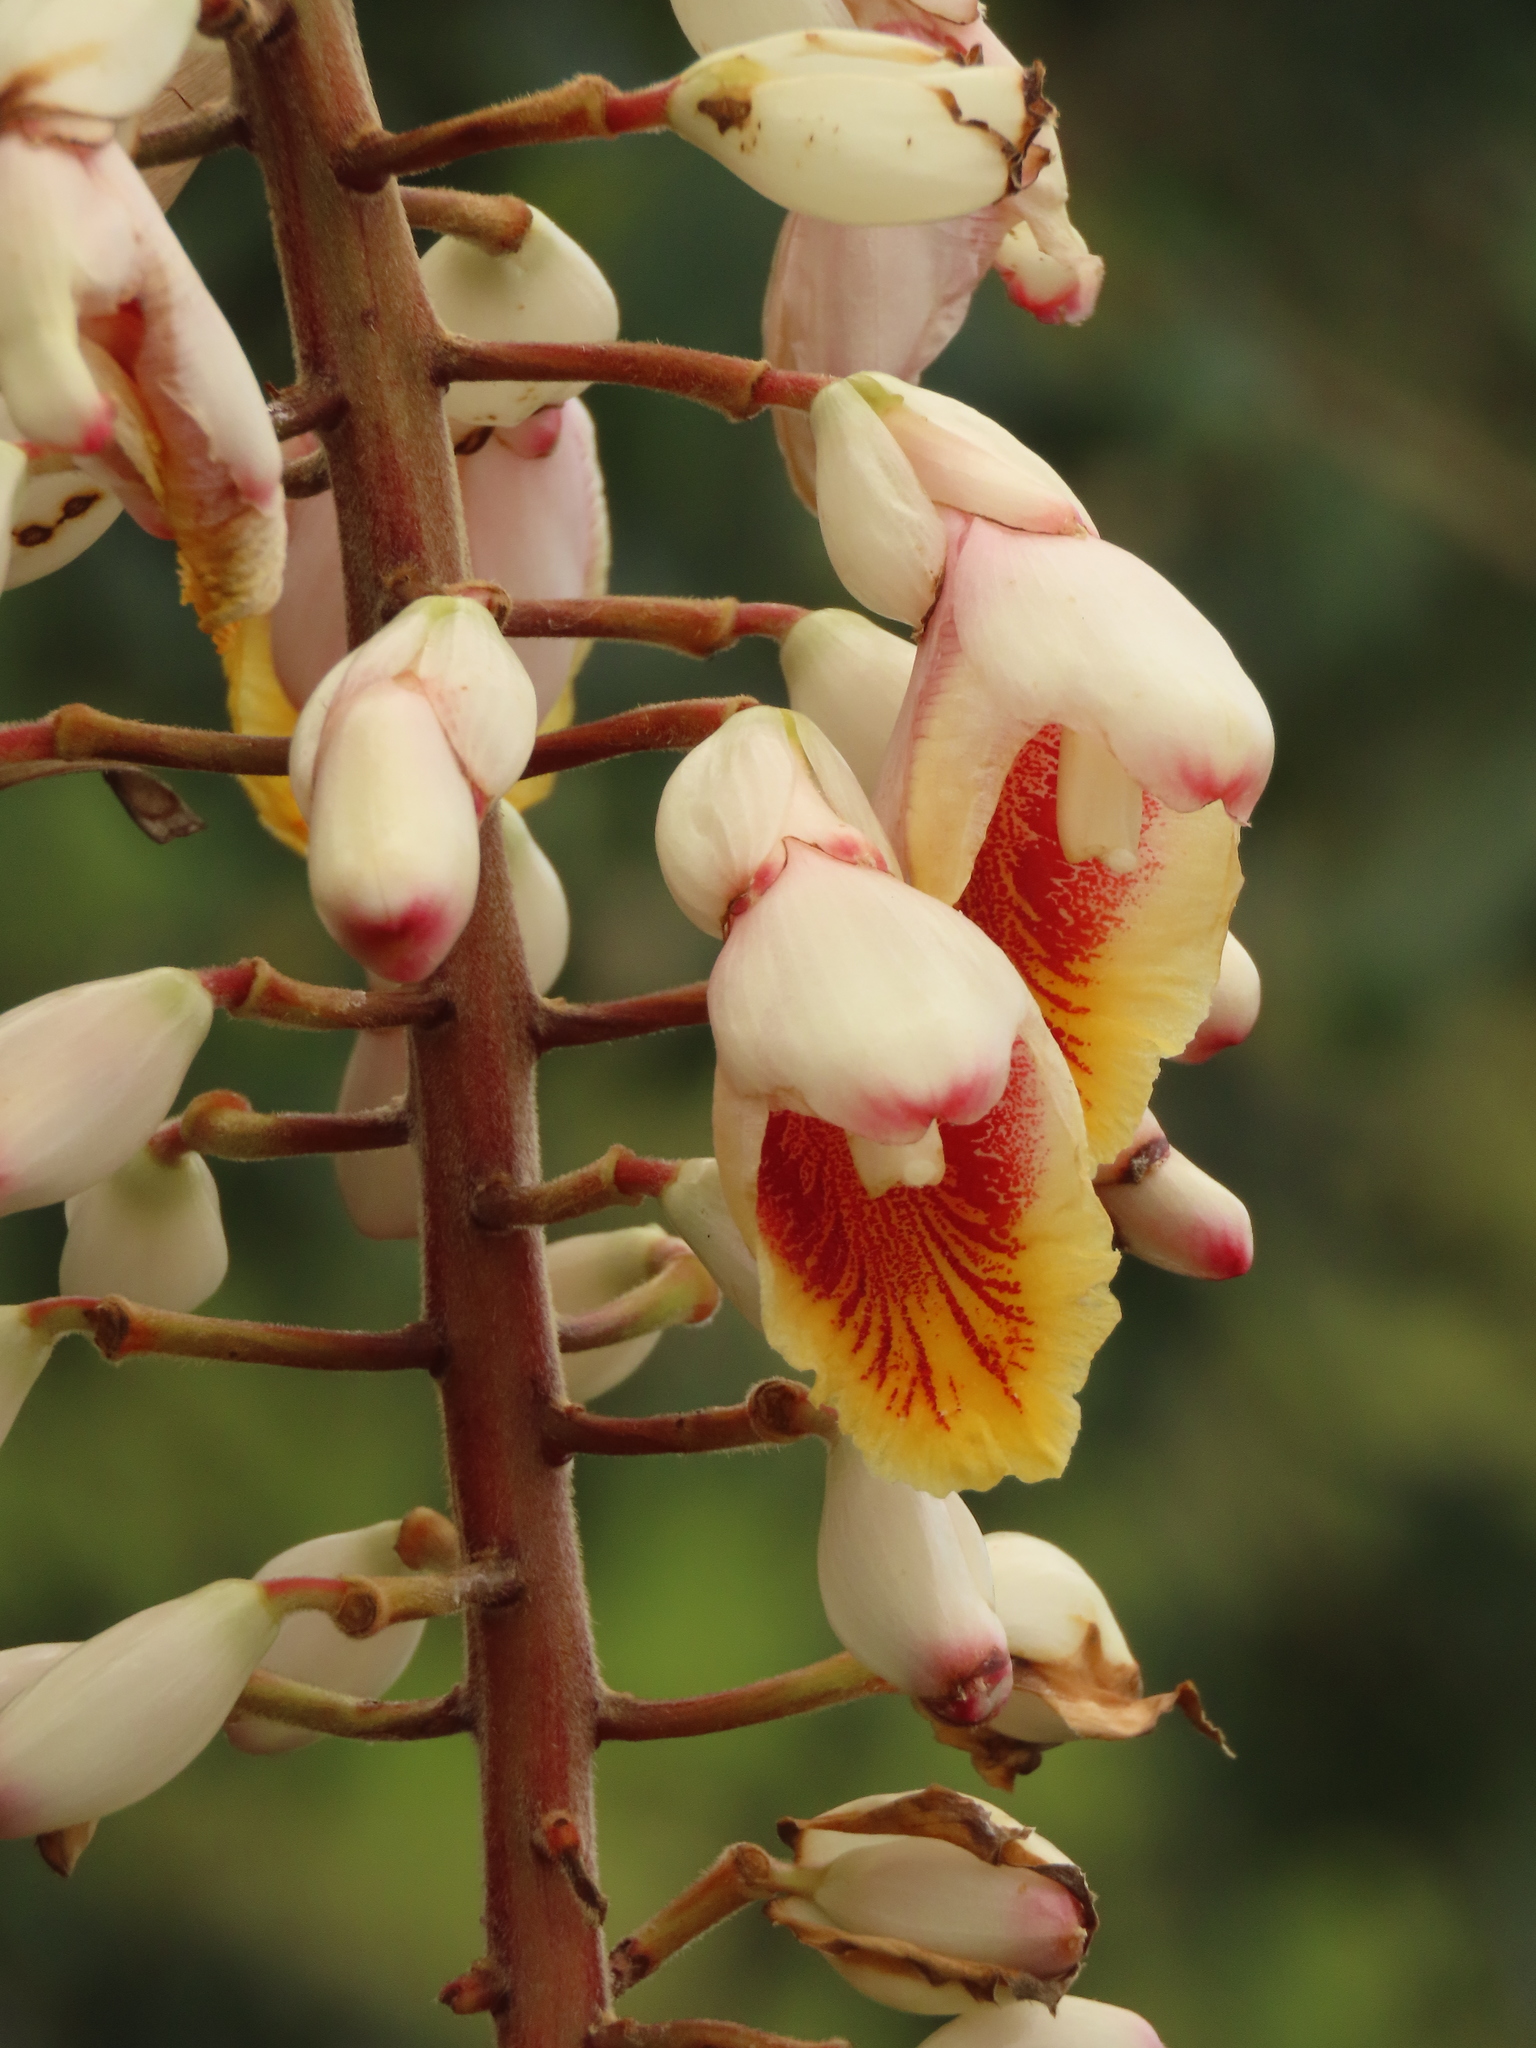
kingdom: Plantae
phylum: Tracheophyta
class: Liliopsida
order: Zingiberales
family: Zingiberaceae
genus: Alpinia
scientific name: Alpinia zerumbet
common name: Shellplant
